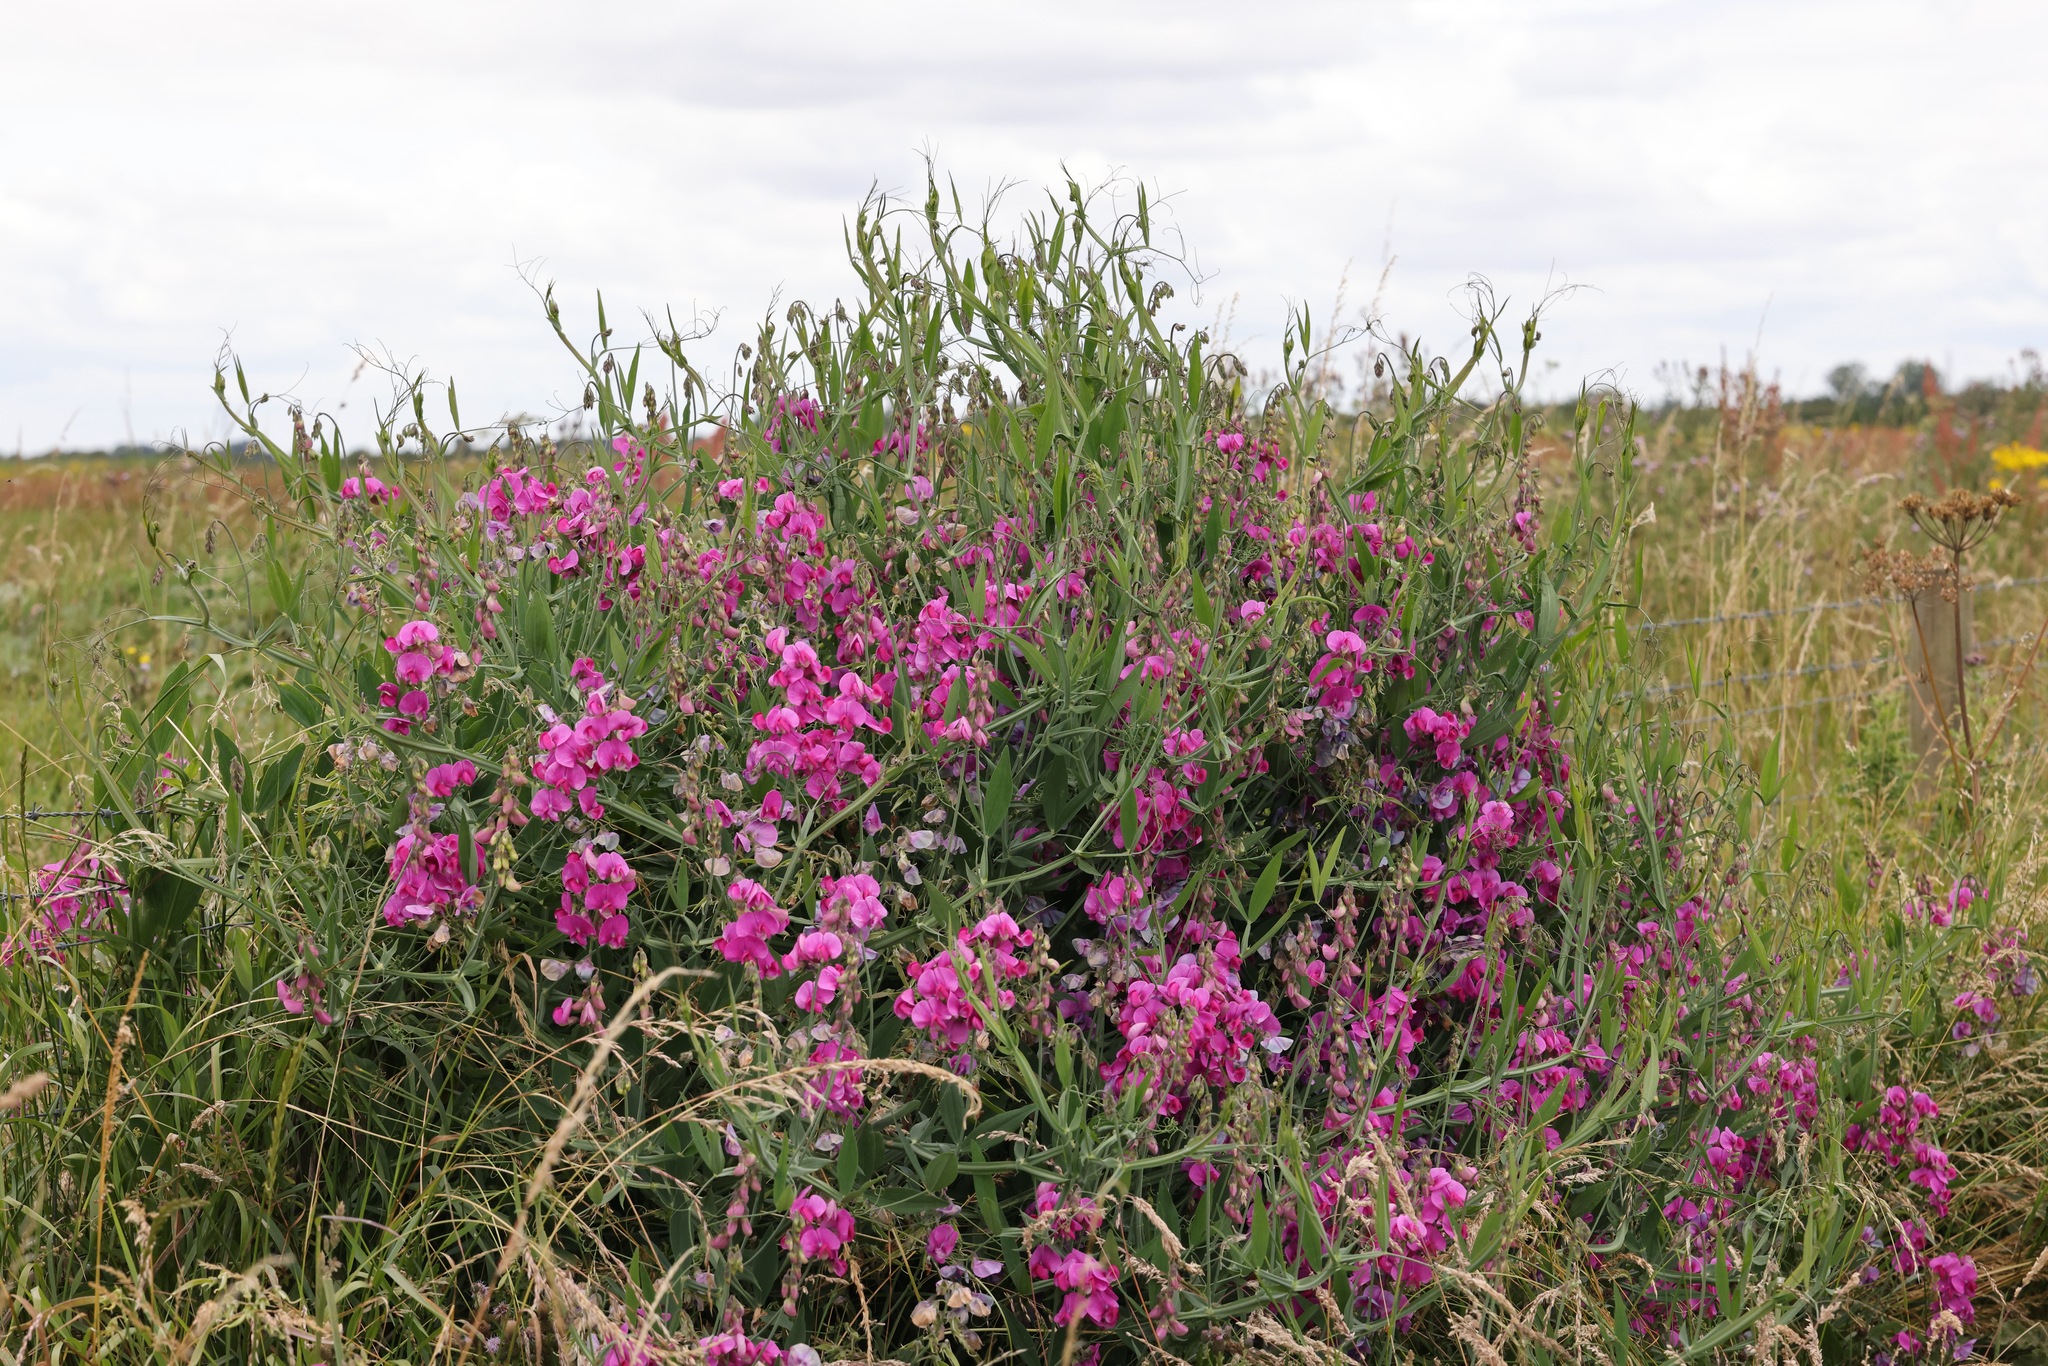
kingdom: Plantae
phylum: Tracheophyta
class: Magnoliopsida
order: Fabales
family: Fabaceae
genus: Lathyrus
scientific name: Lathyrus latifolius
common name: Perennial pea
